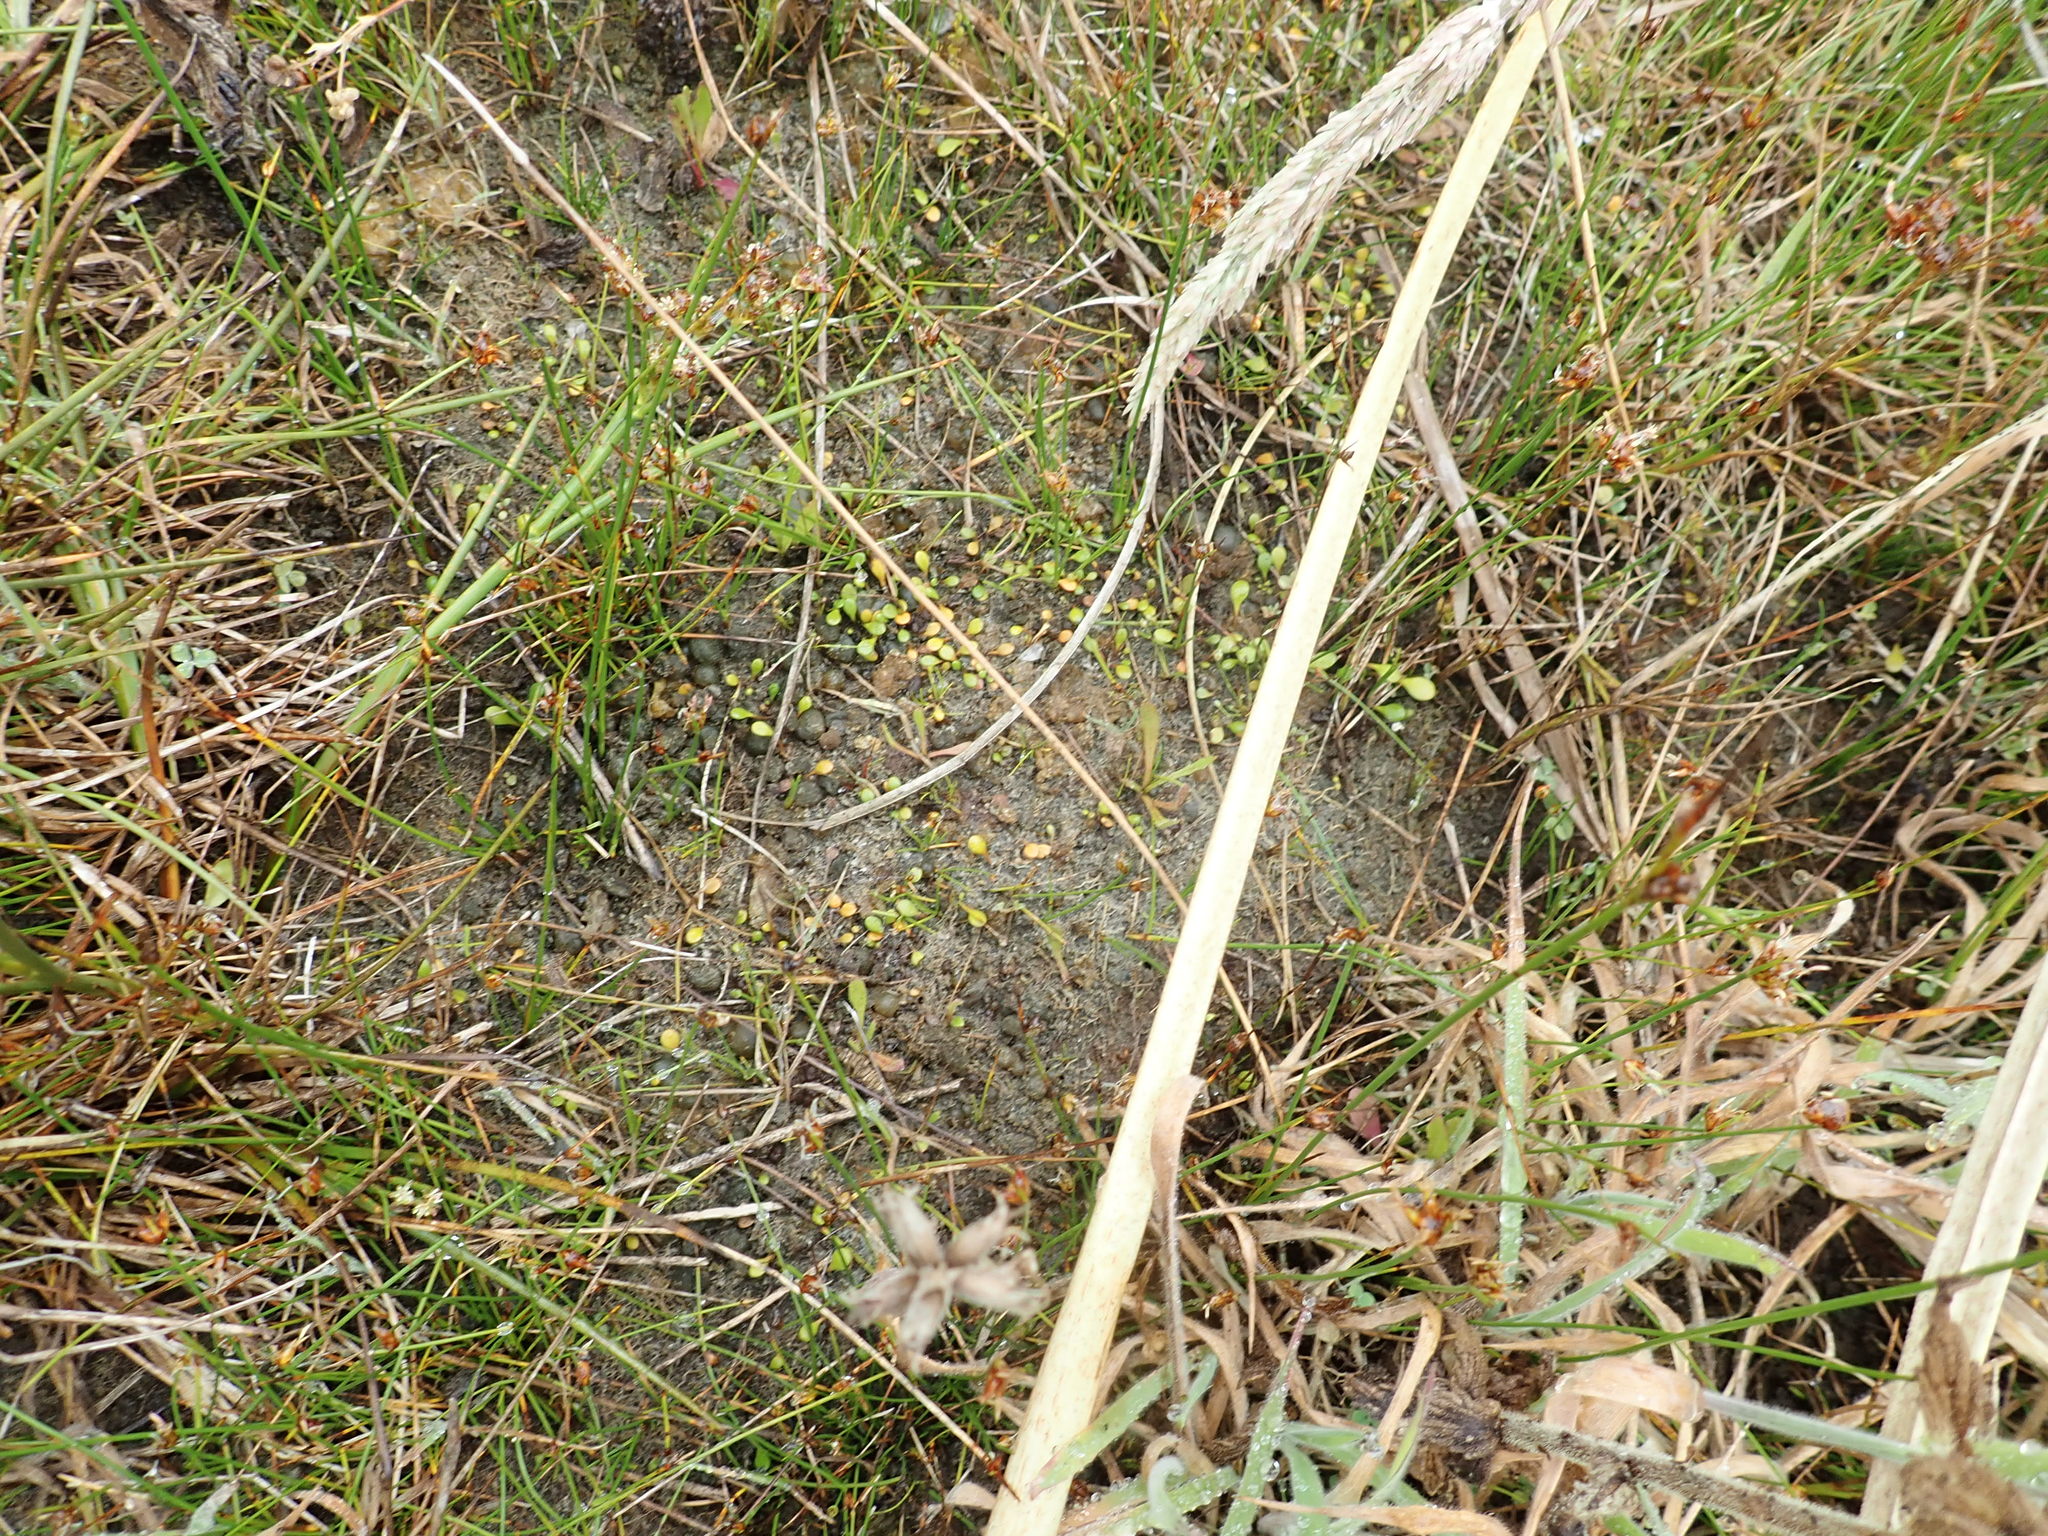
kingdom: Plantae
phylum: Tracheophyta
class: Magnoliopsida
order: Asterales
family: Goodeniaceae
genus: Goodenia
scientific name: Goodenia heenanii
